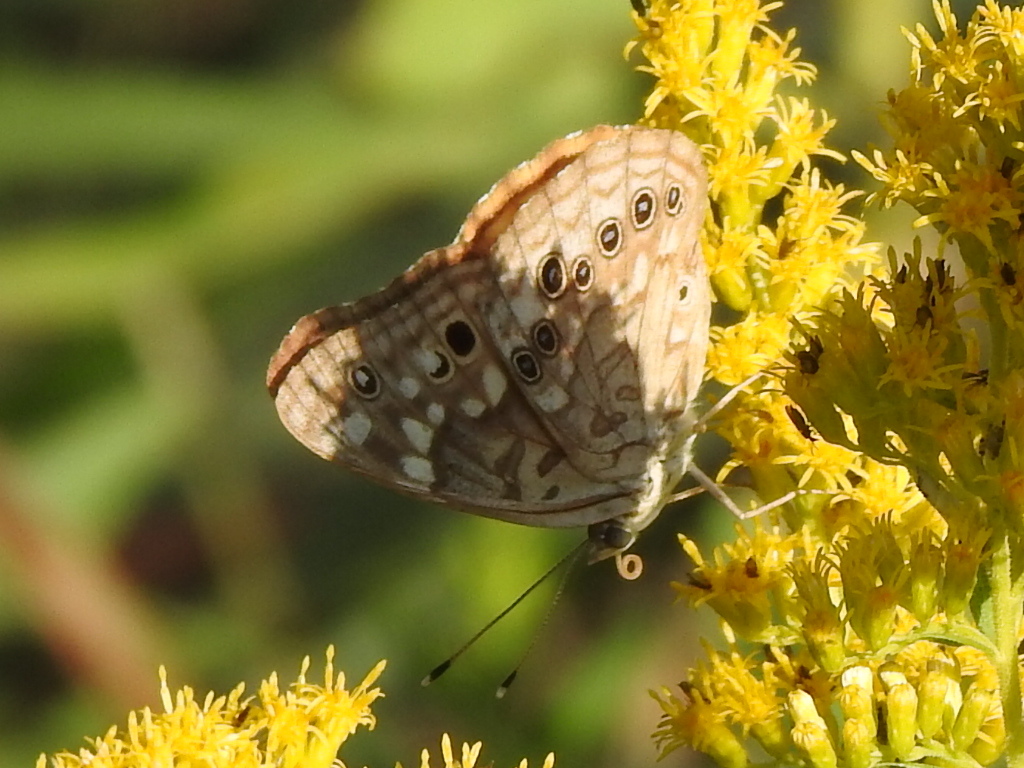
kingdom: Animalia
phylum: Arthropoda
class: Insecta
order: Lepidoptera
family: Nymphalidae
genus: Asterocampa
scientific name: Asterocampa celtis
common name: Hackberry emperor
